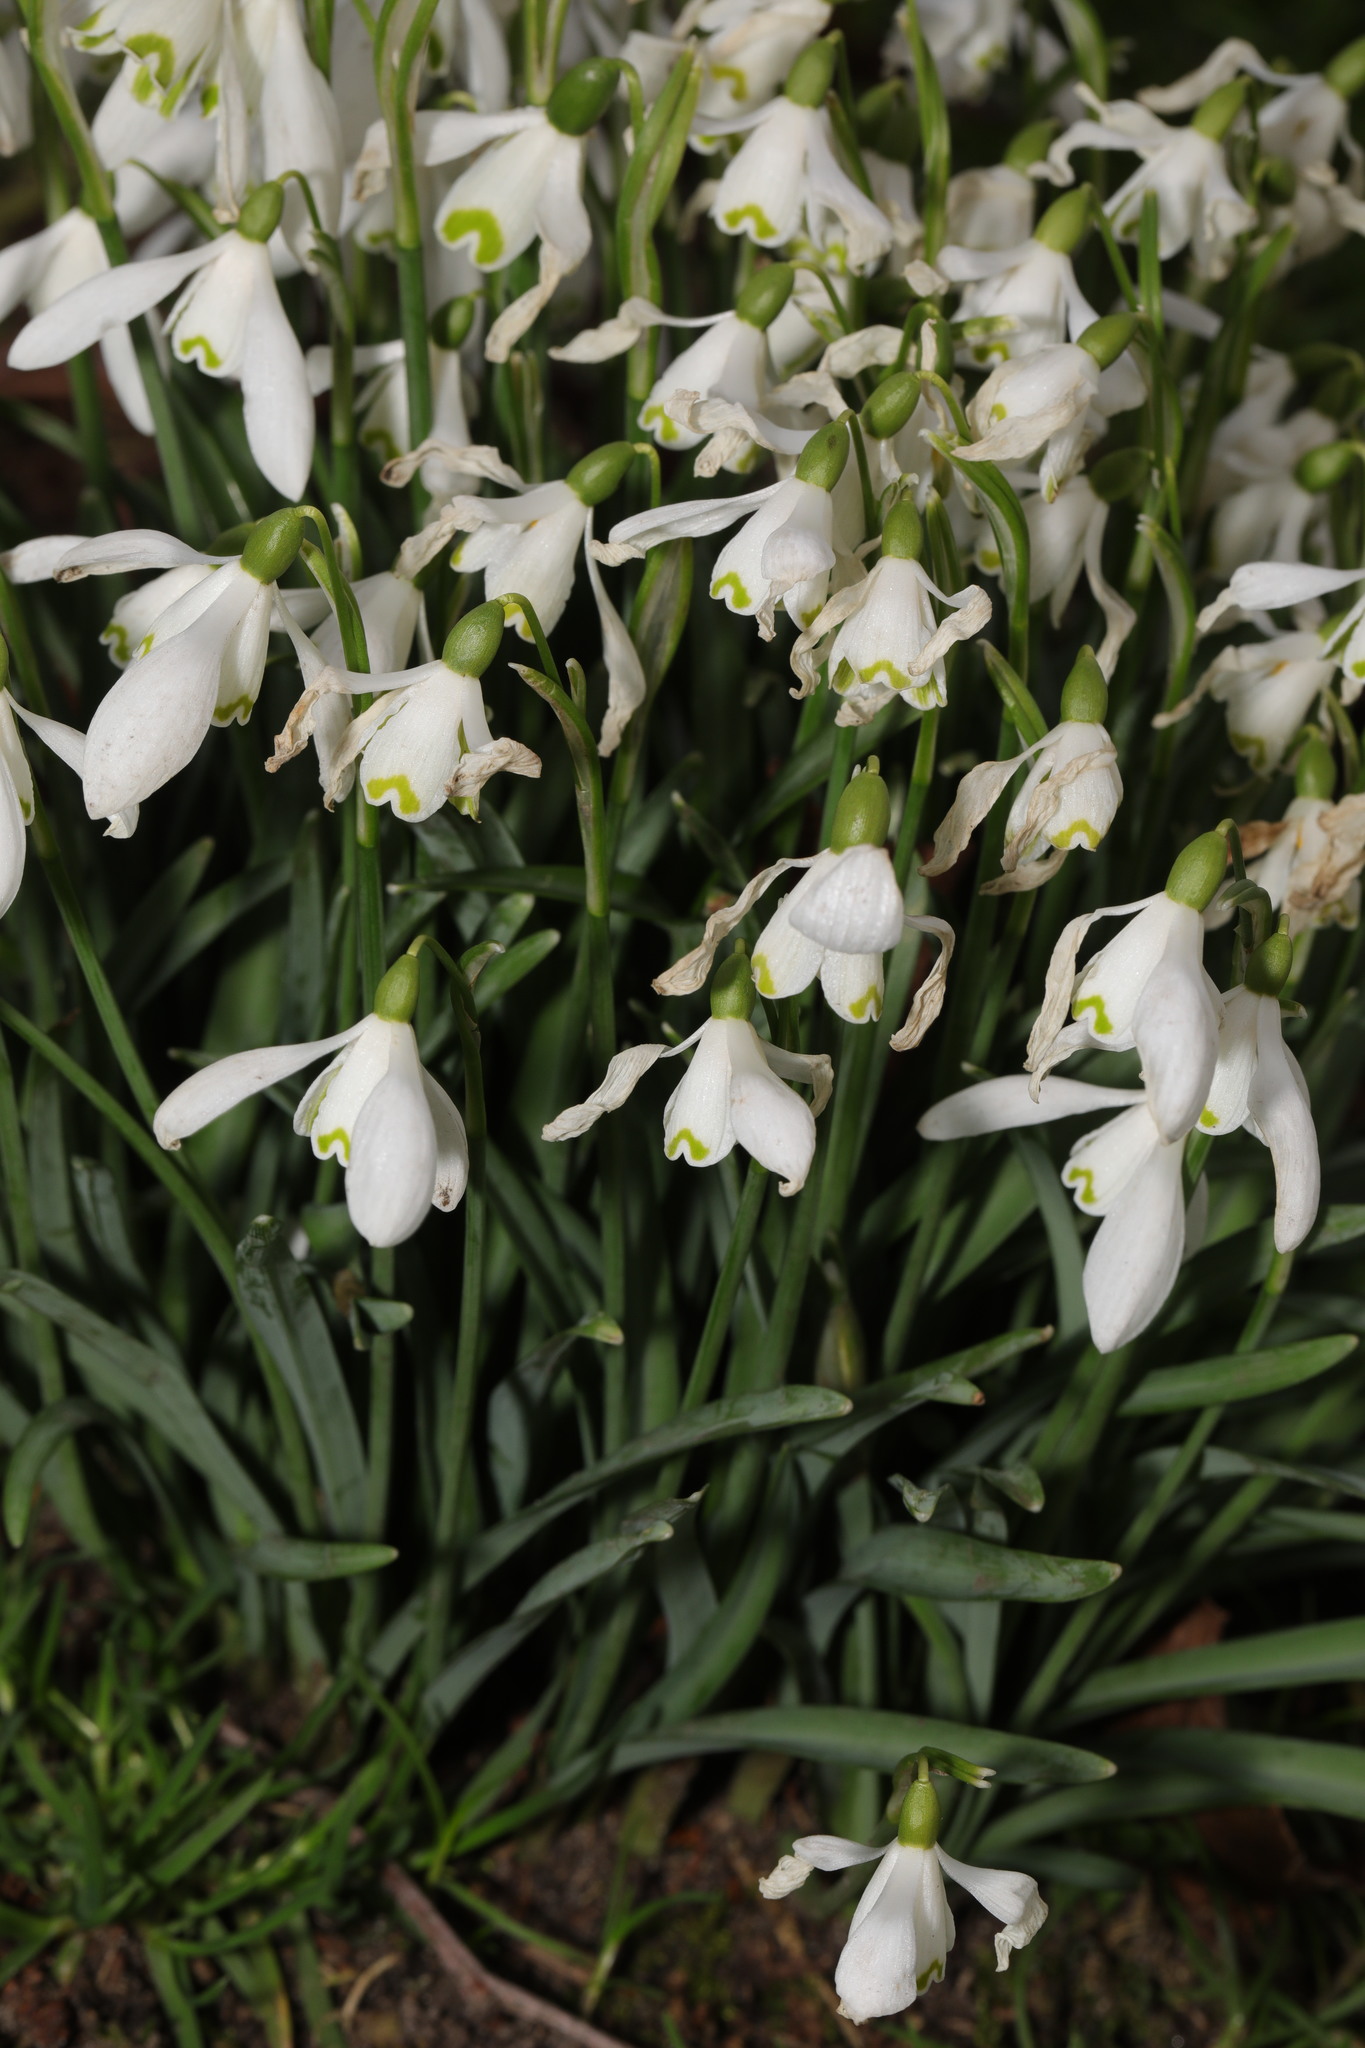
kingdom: Plantae
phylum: Tracheophyta
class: Liliopsida
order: Asparagales
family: Amaryllidaceae
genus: Galanthus
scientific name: Galanthus nivalis
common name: Snowdrop
